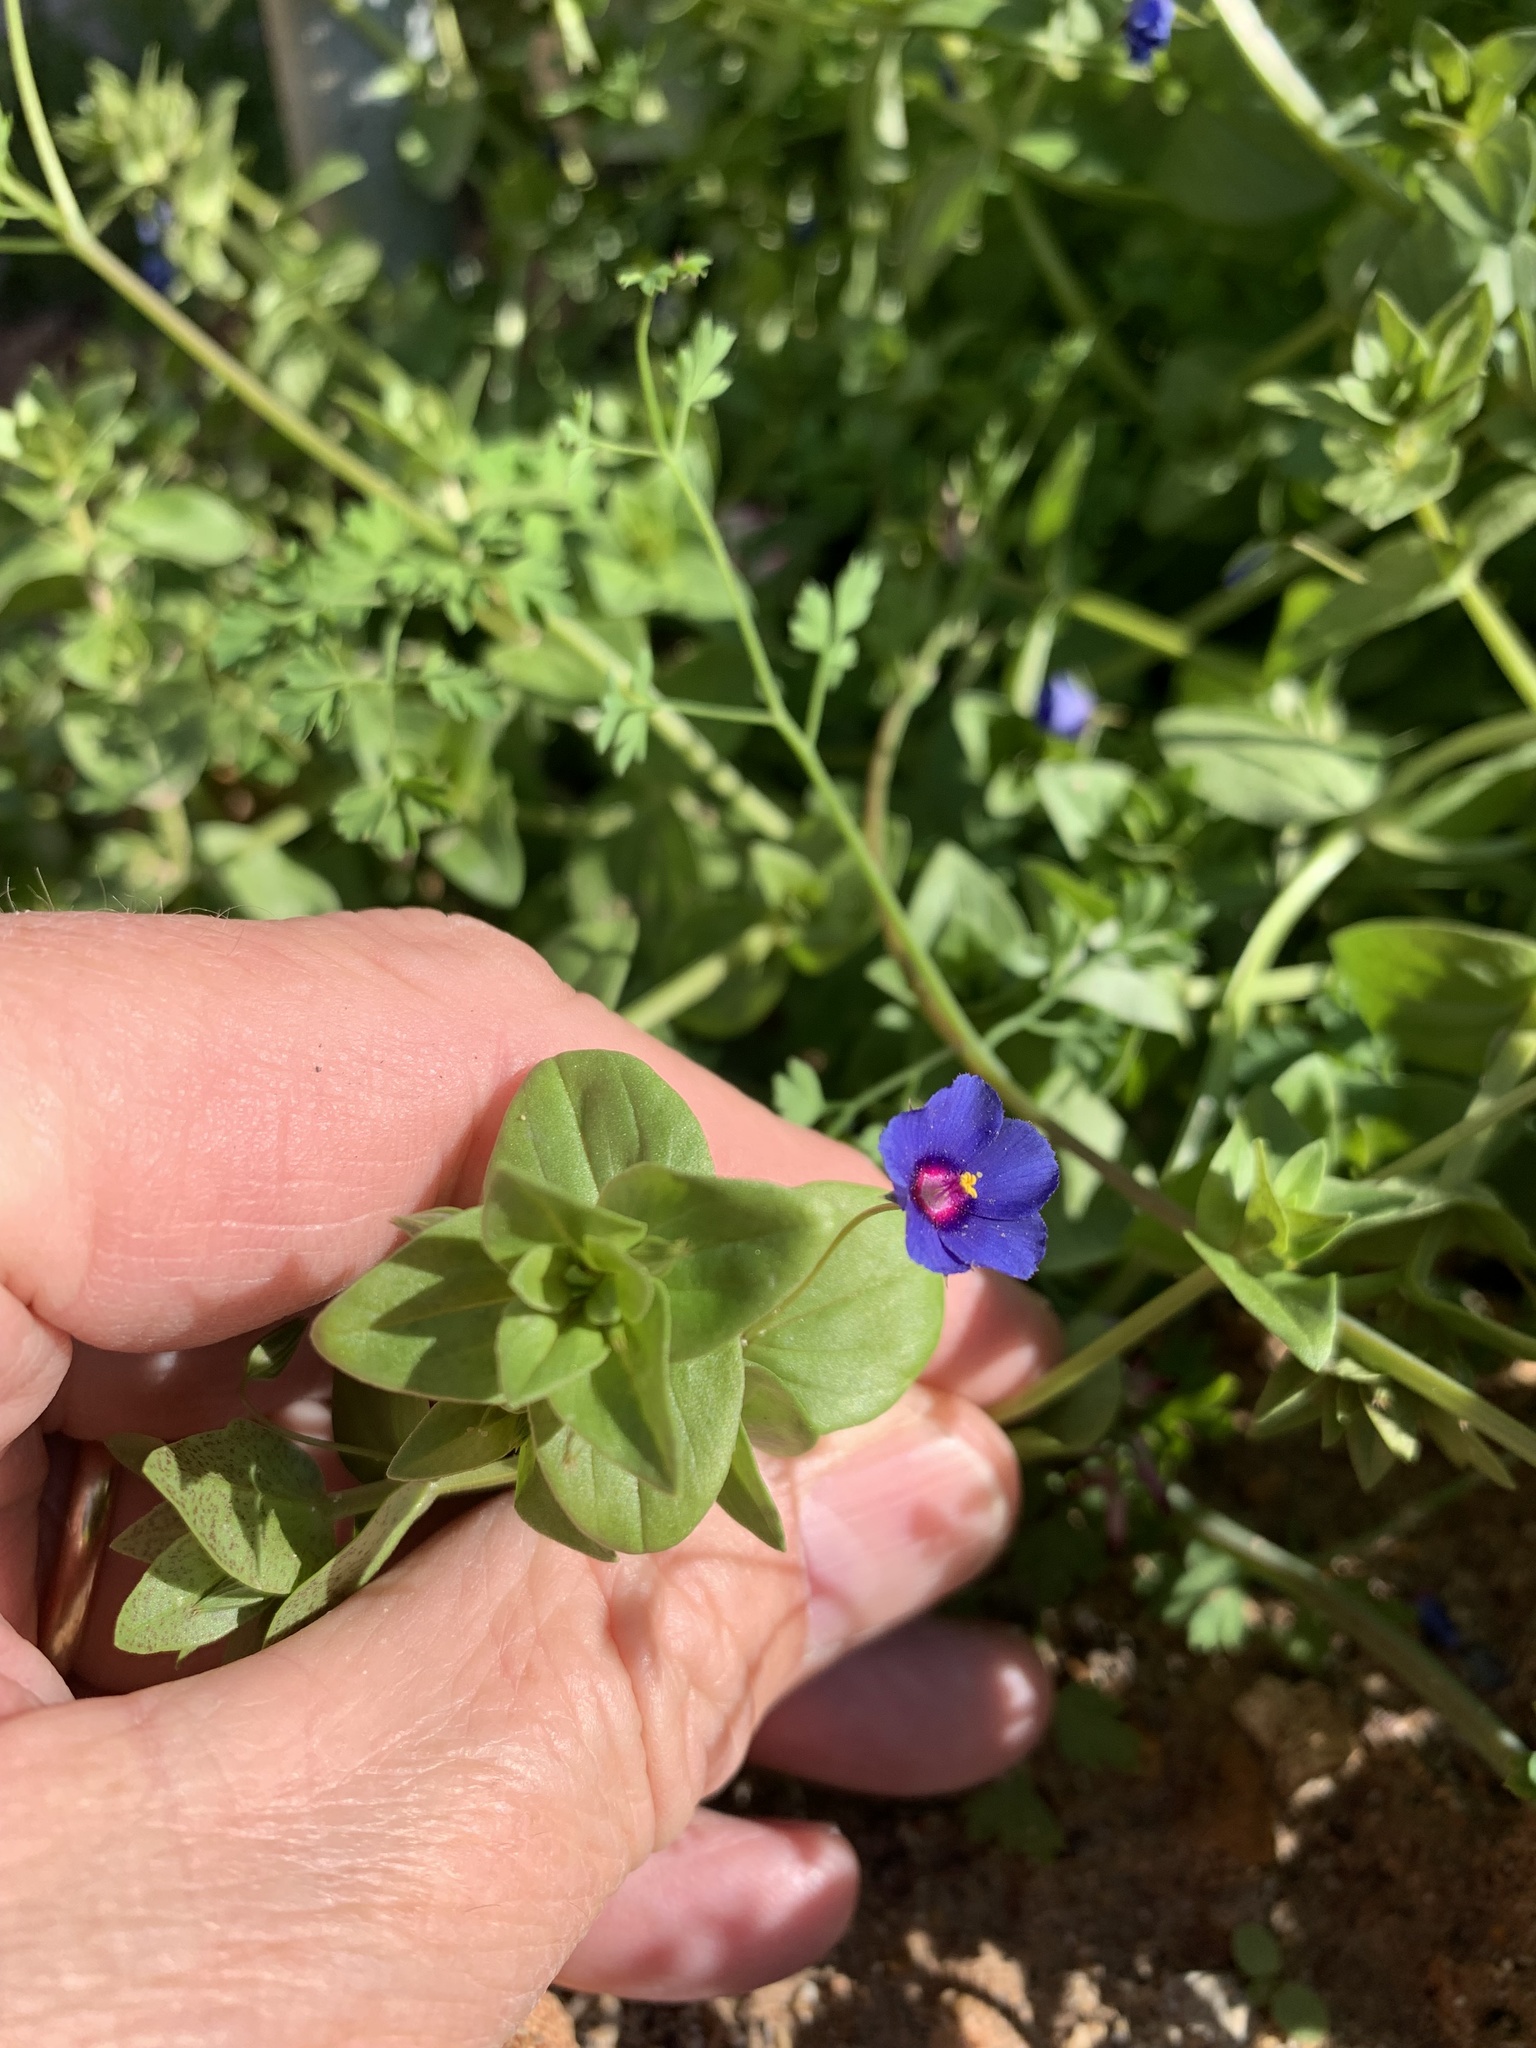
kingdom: Plantae
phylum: Tracheophyta
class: Magnoliopsida
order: Ericales
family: Primulaceae
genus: Lysimachia
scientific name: Lysimachia loeflingii
